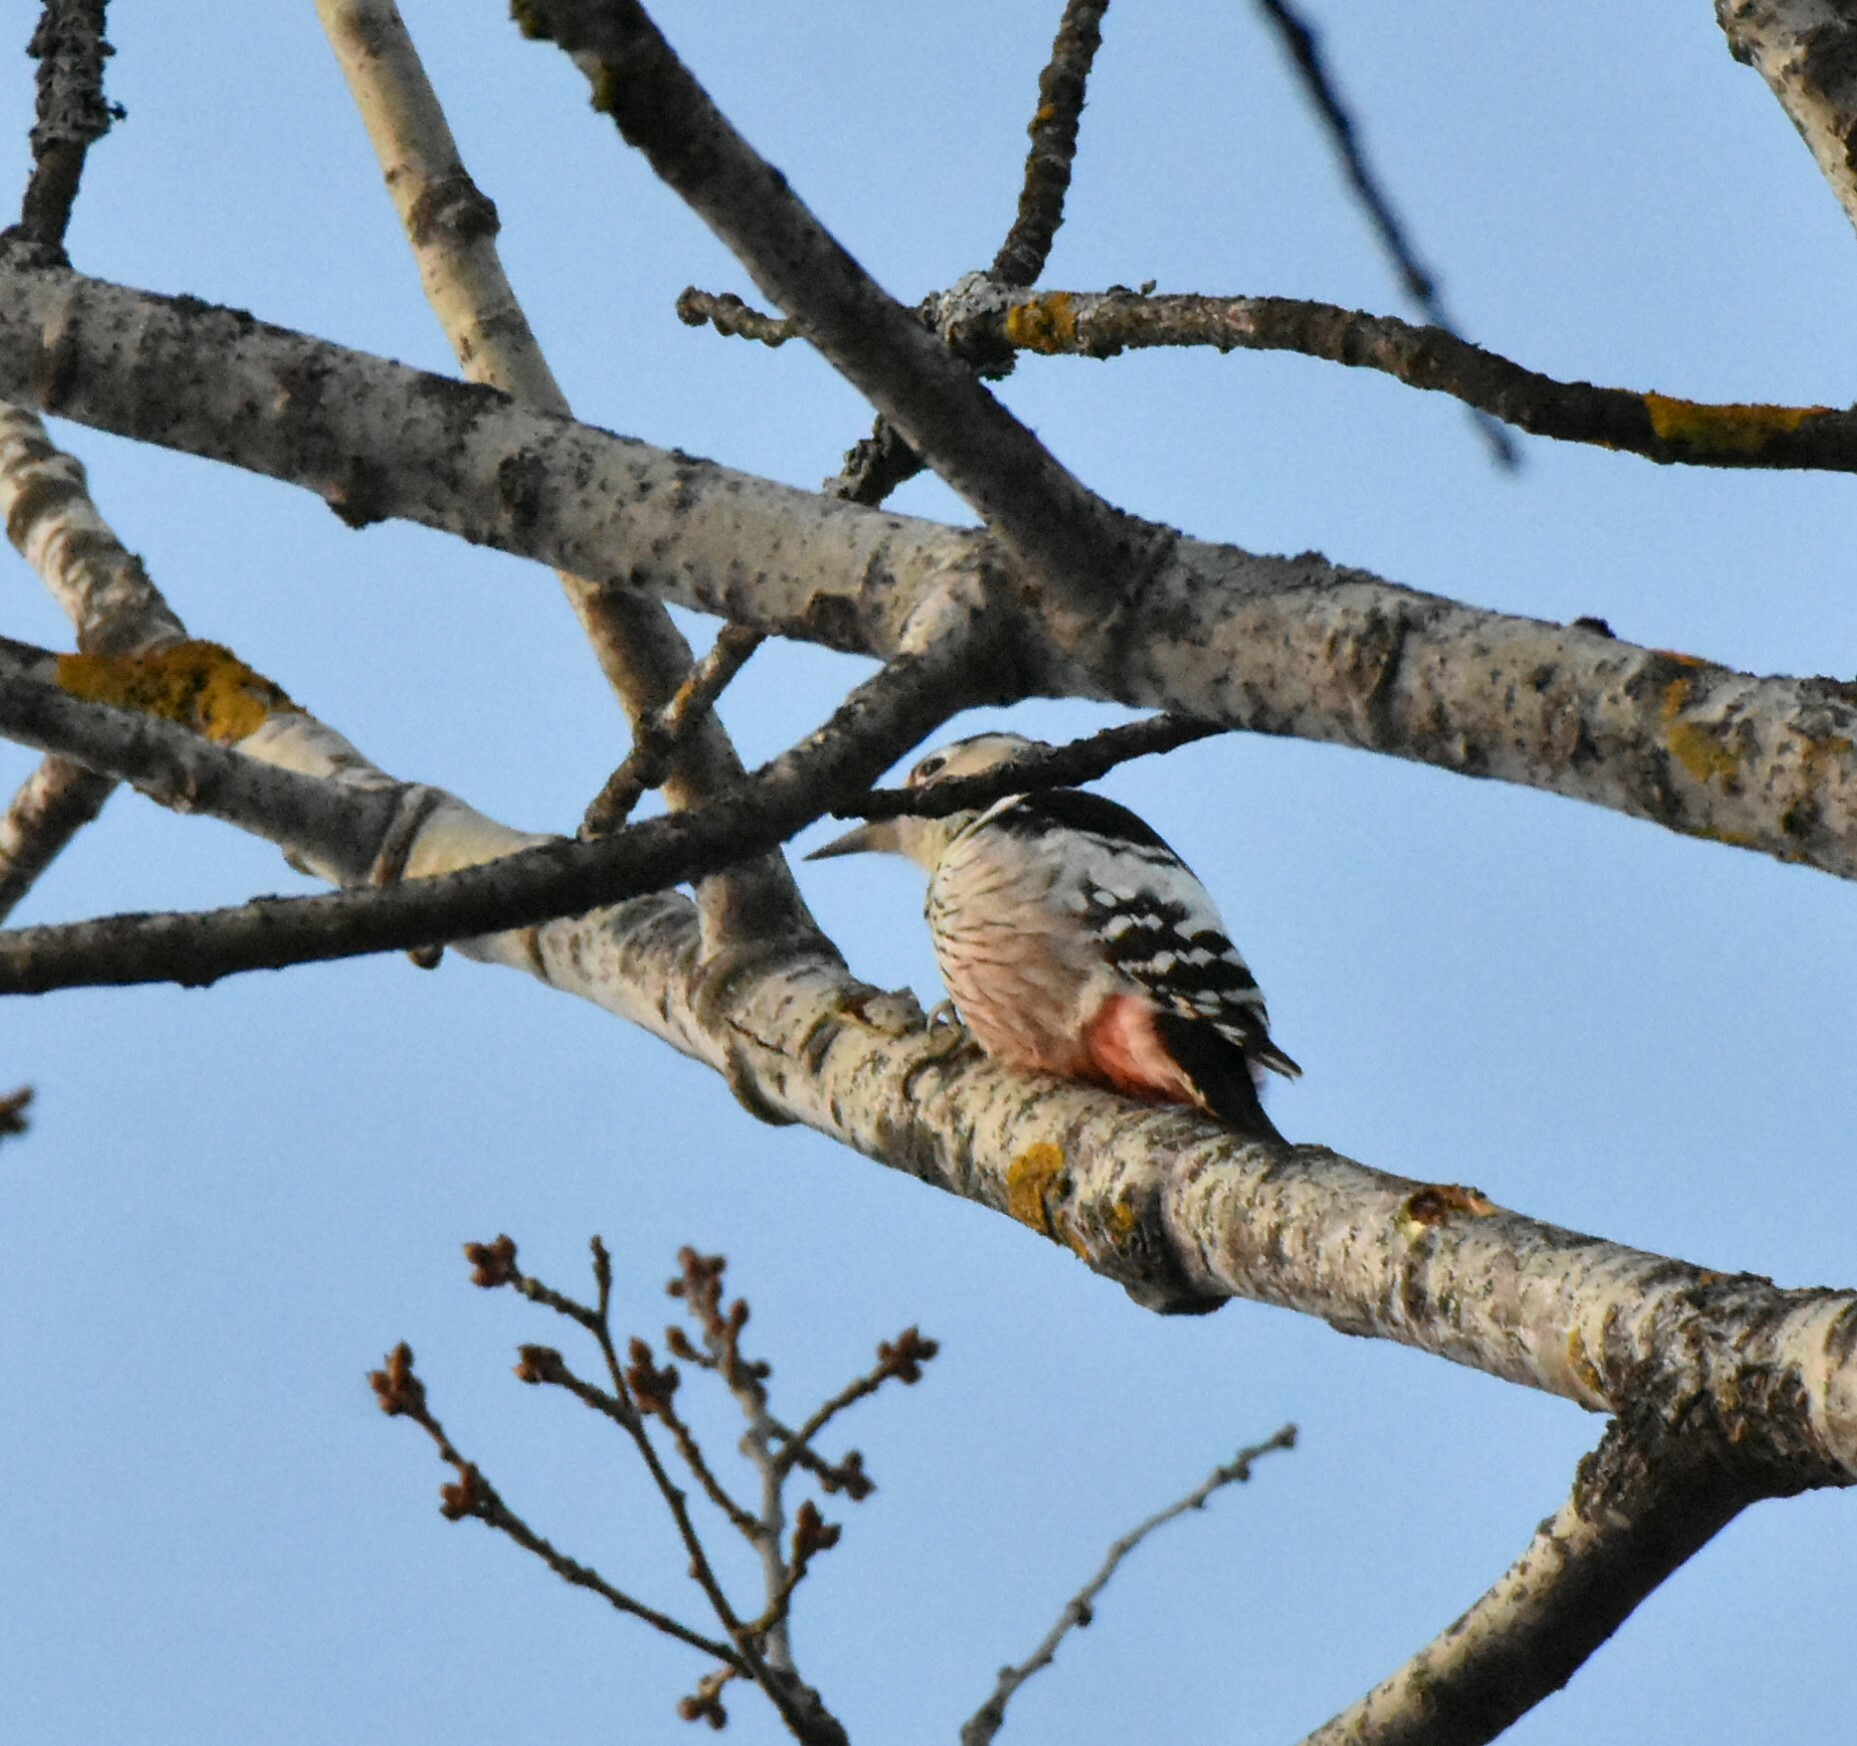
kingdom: Animalia
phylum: Chordata
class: Aves
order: Piciformes
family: Picidae
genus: Dendrocopos
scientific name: Dendrocopos leucotos
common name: White-backed woodpecker
